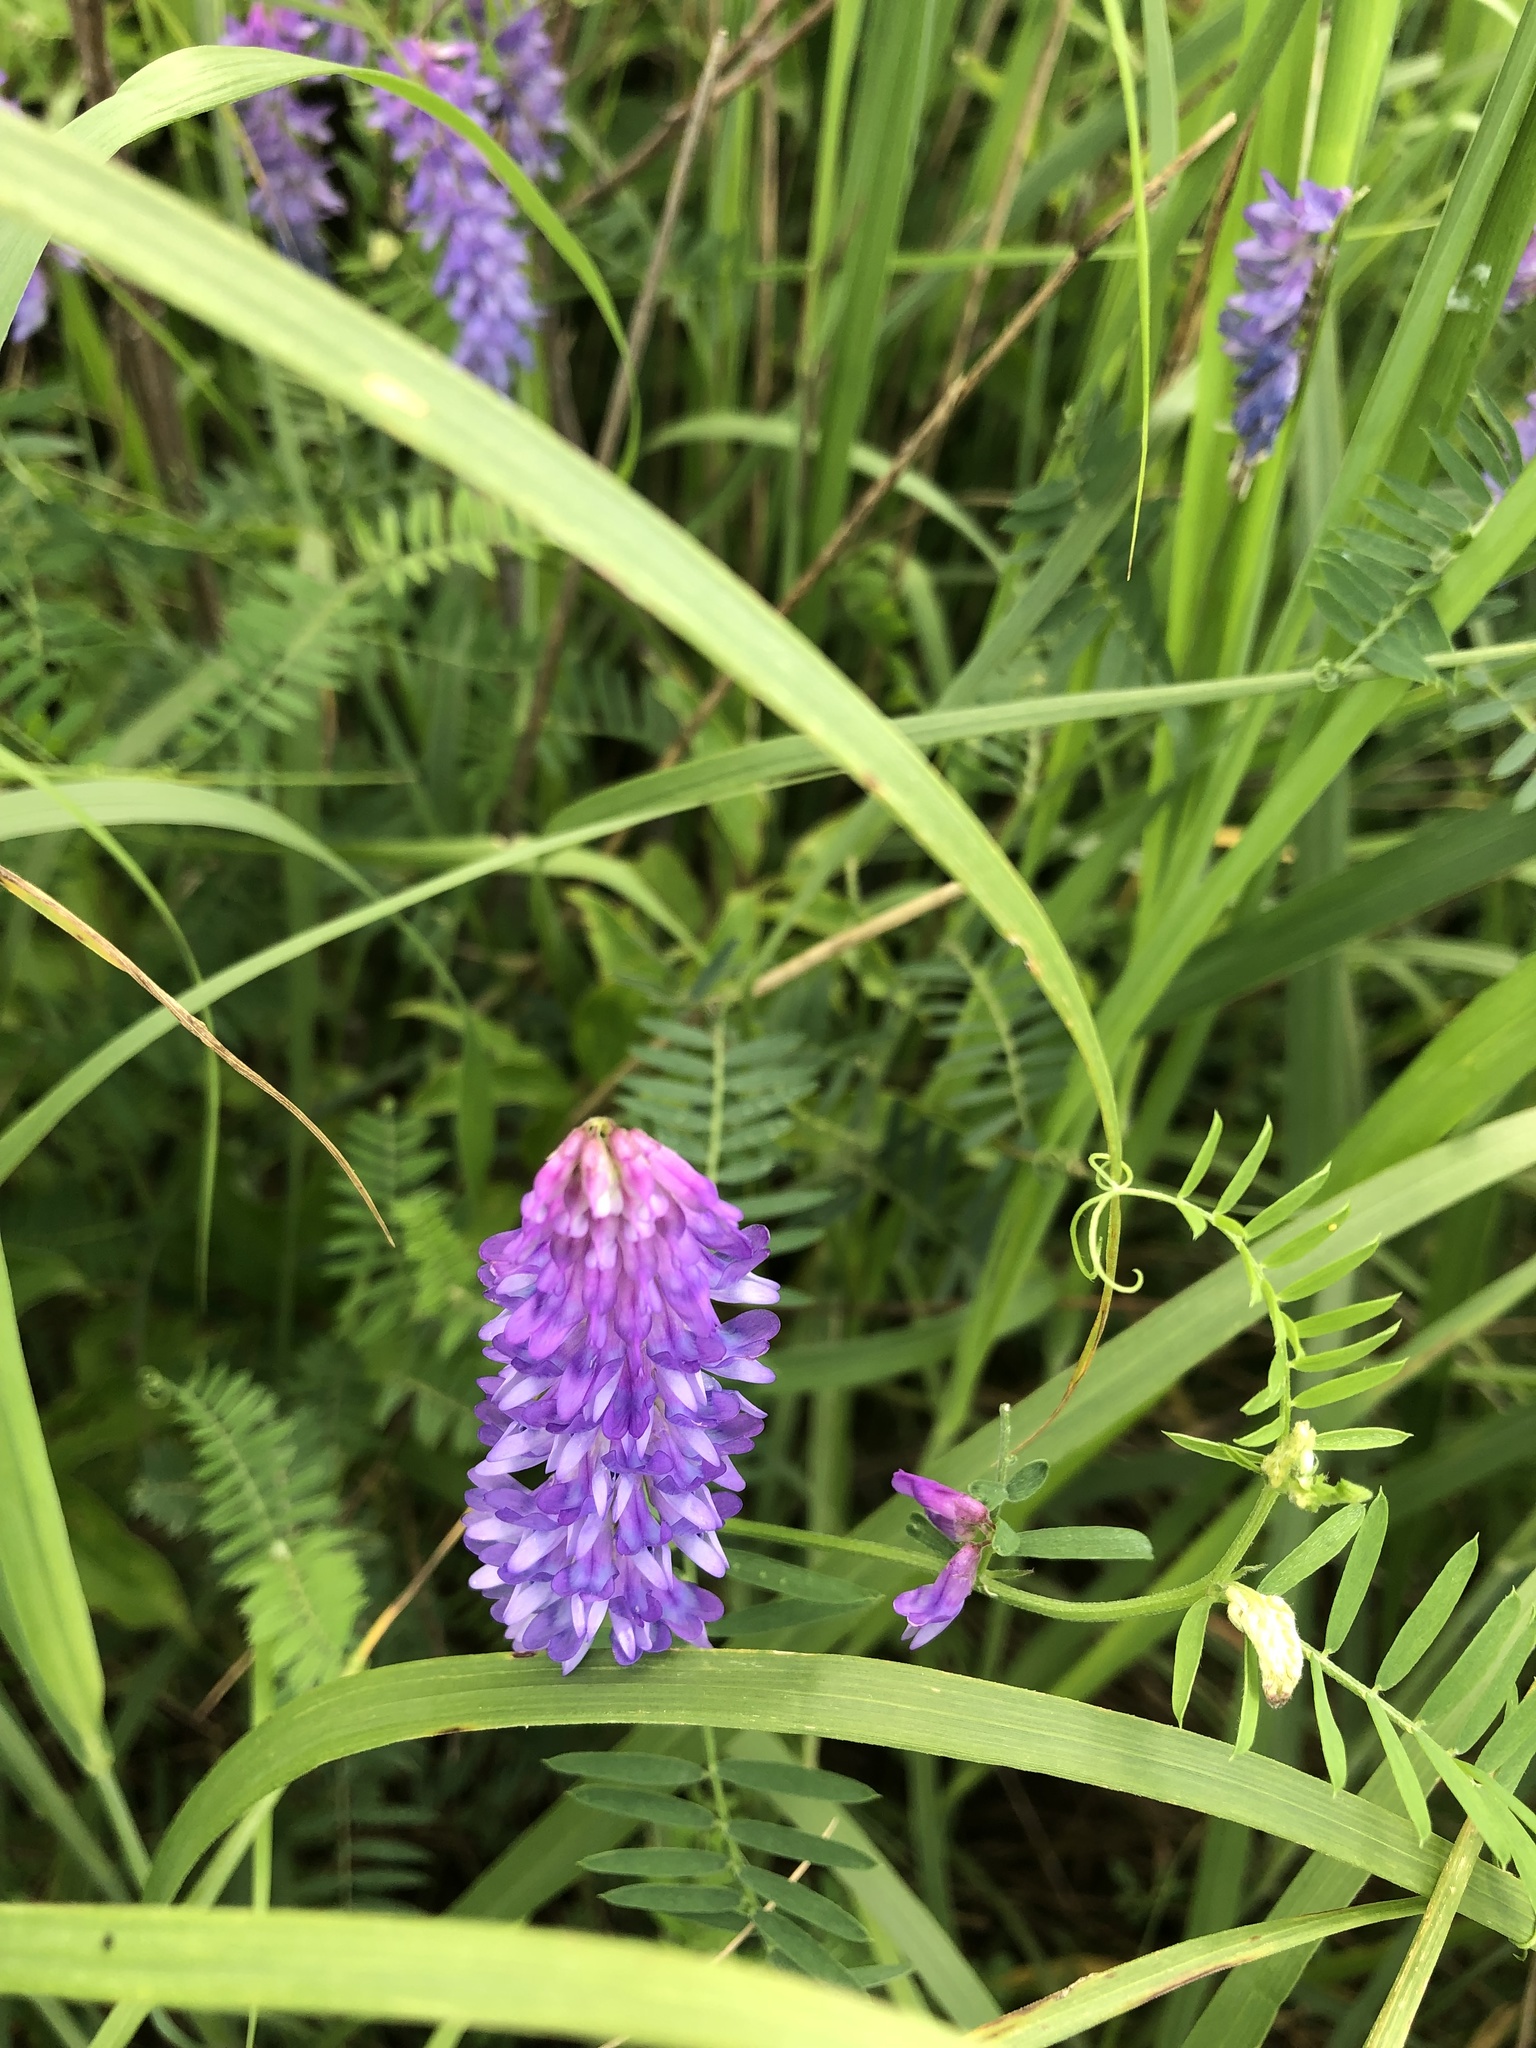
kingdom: Plantae
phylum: Tracheophyta
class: Magnoliopsida
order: Fabales
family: Fabaceae
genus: Vicia
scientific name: Vicia cracca
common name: Bird vetch
